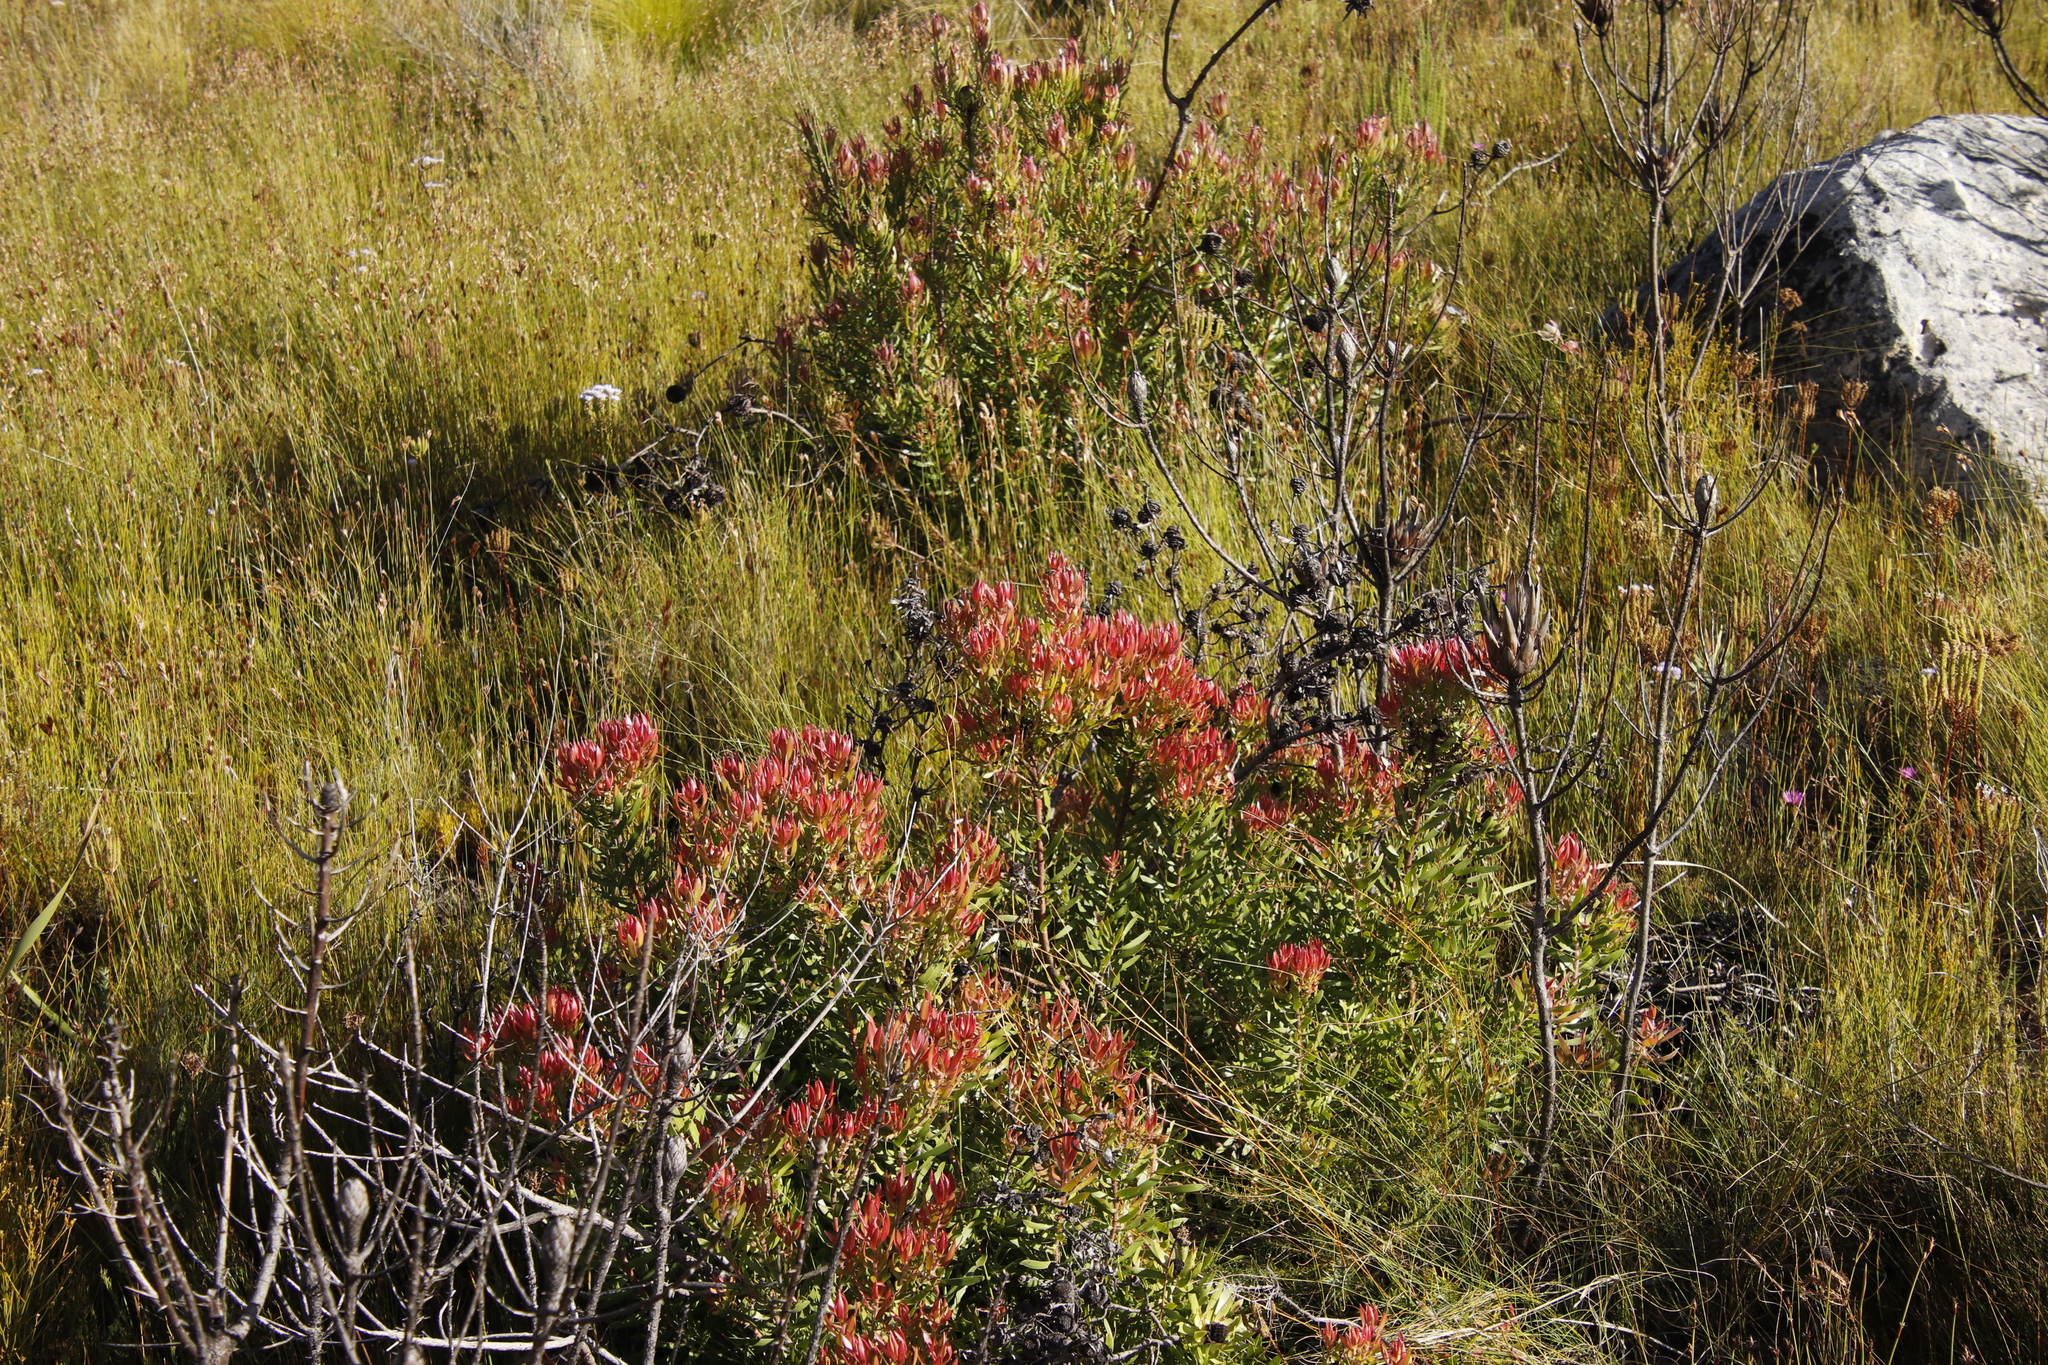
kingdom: Plantae
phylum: Tracheophyta
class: Magnoliopsida
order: Proteales
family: Proteaceae
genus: Leucadendron
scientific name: Leucadendron spissifolium
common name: Spear-leaf conebush
